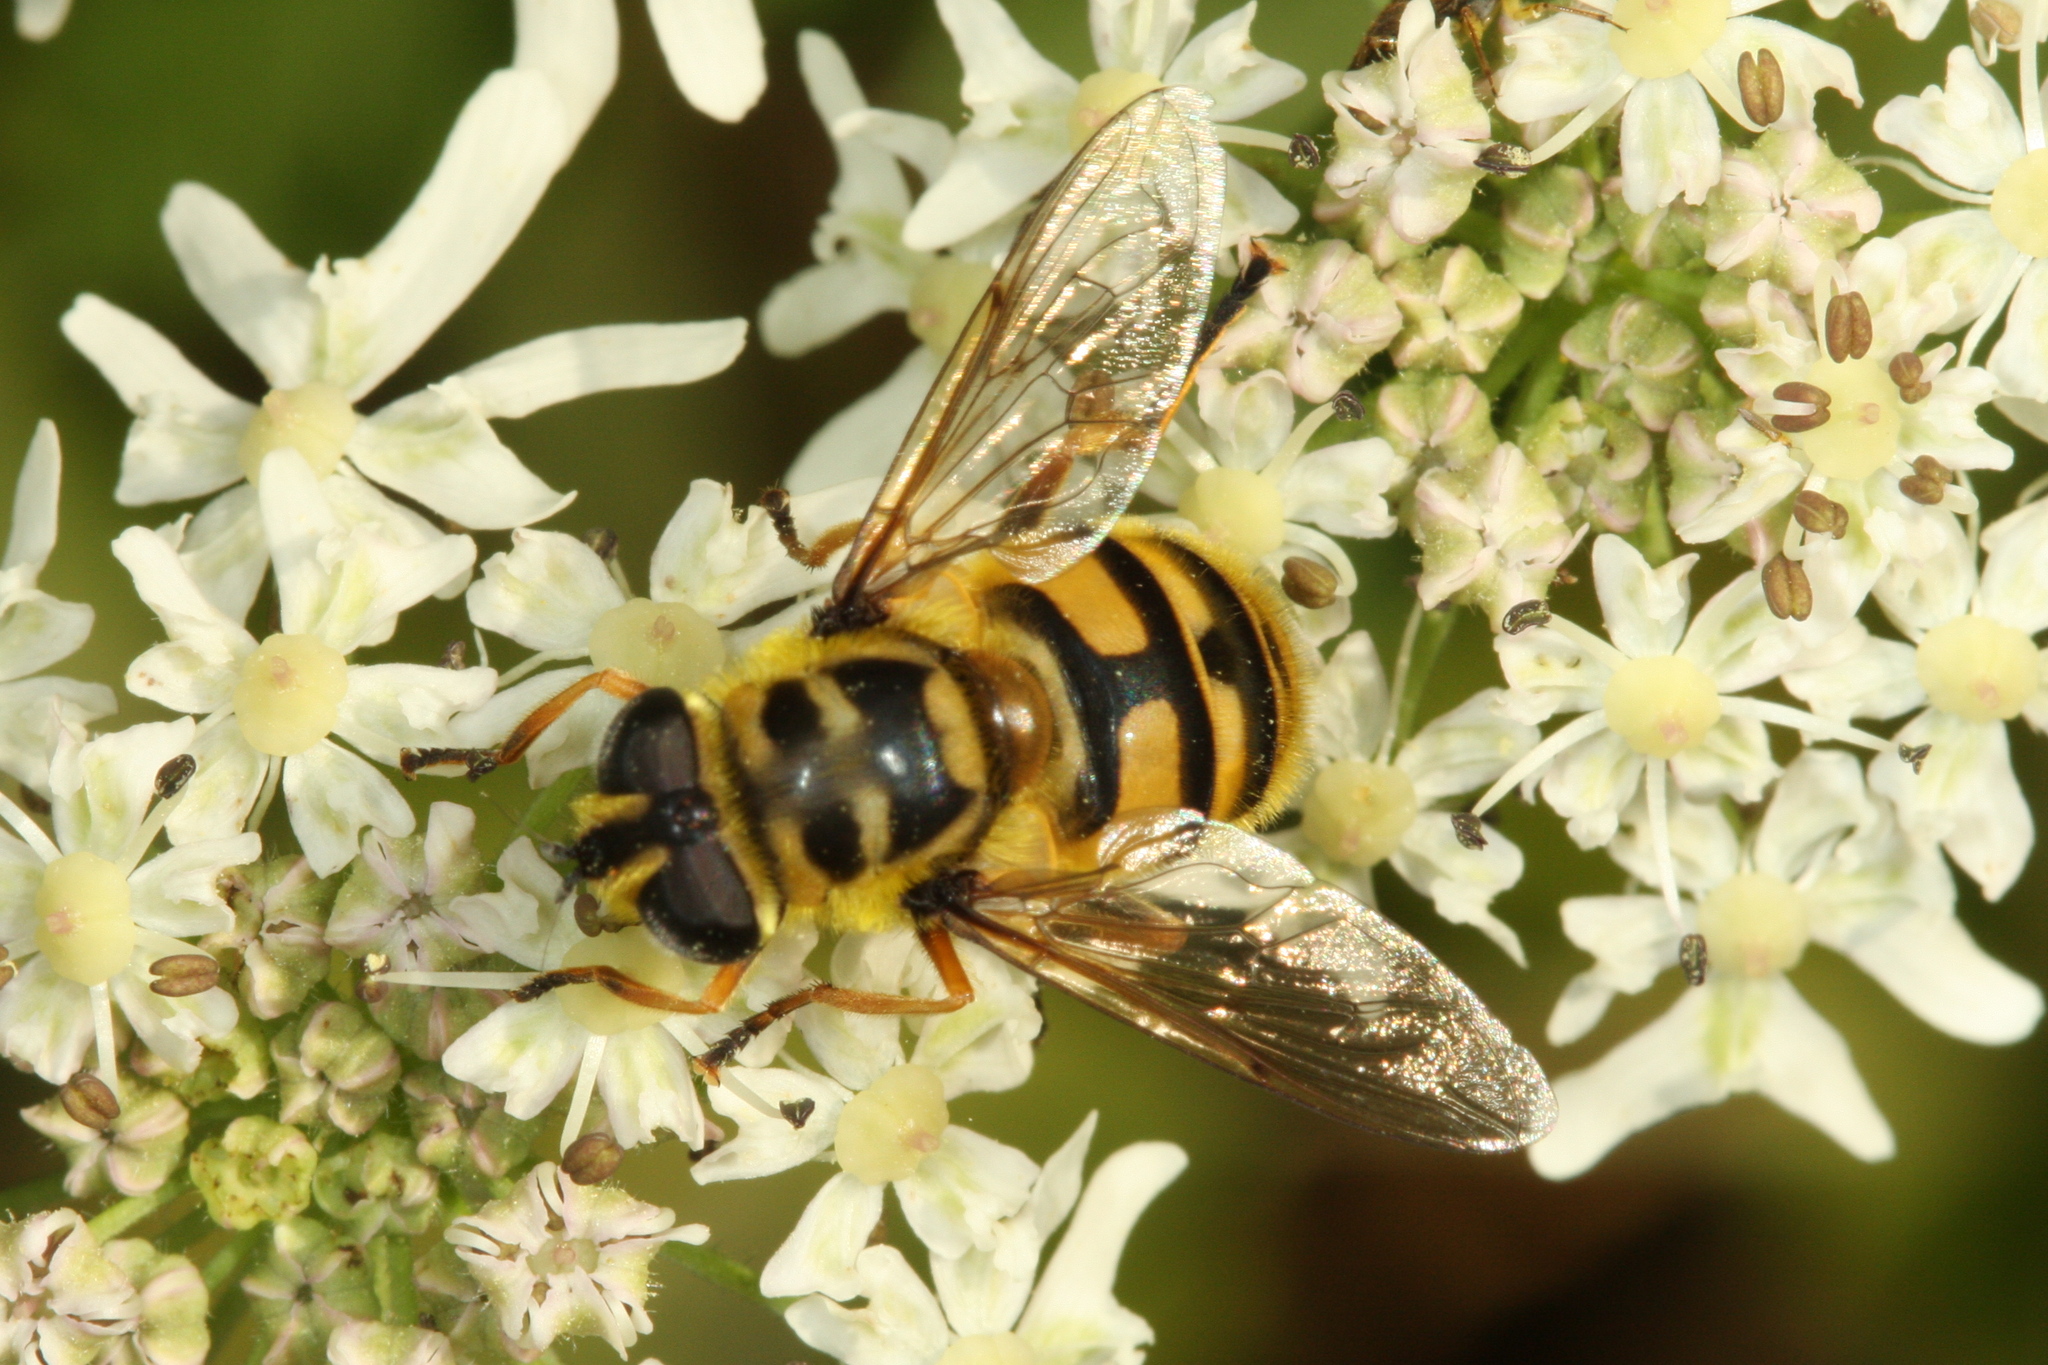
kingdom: Animalia
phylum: Arthropoda
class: Insecta
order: Diptera
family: Syrphidae
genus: Myathropa
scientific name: Myathropa florea
